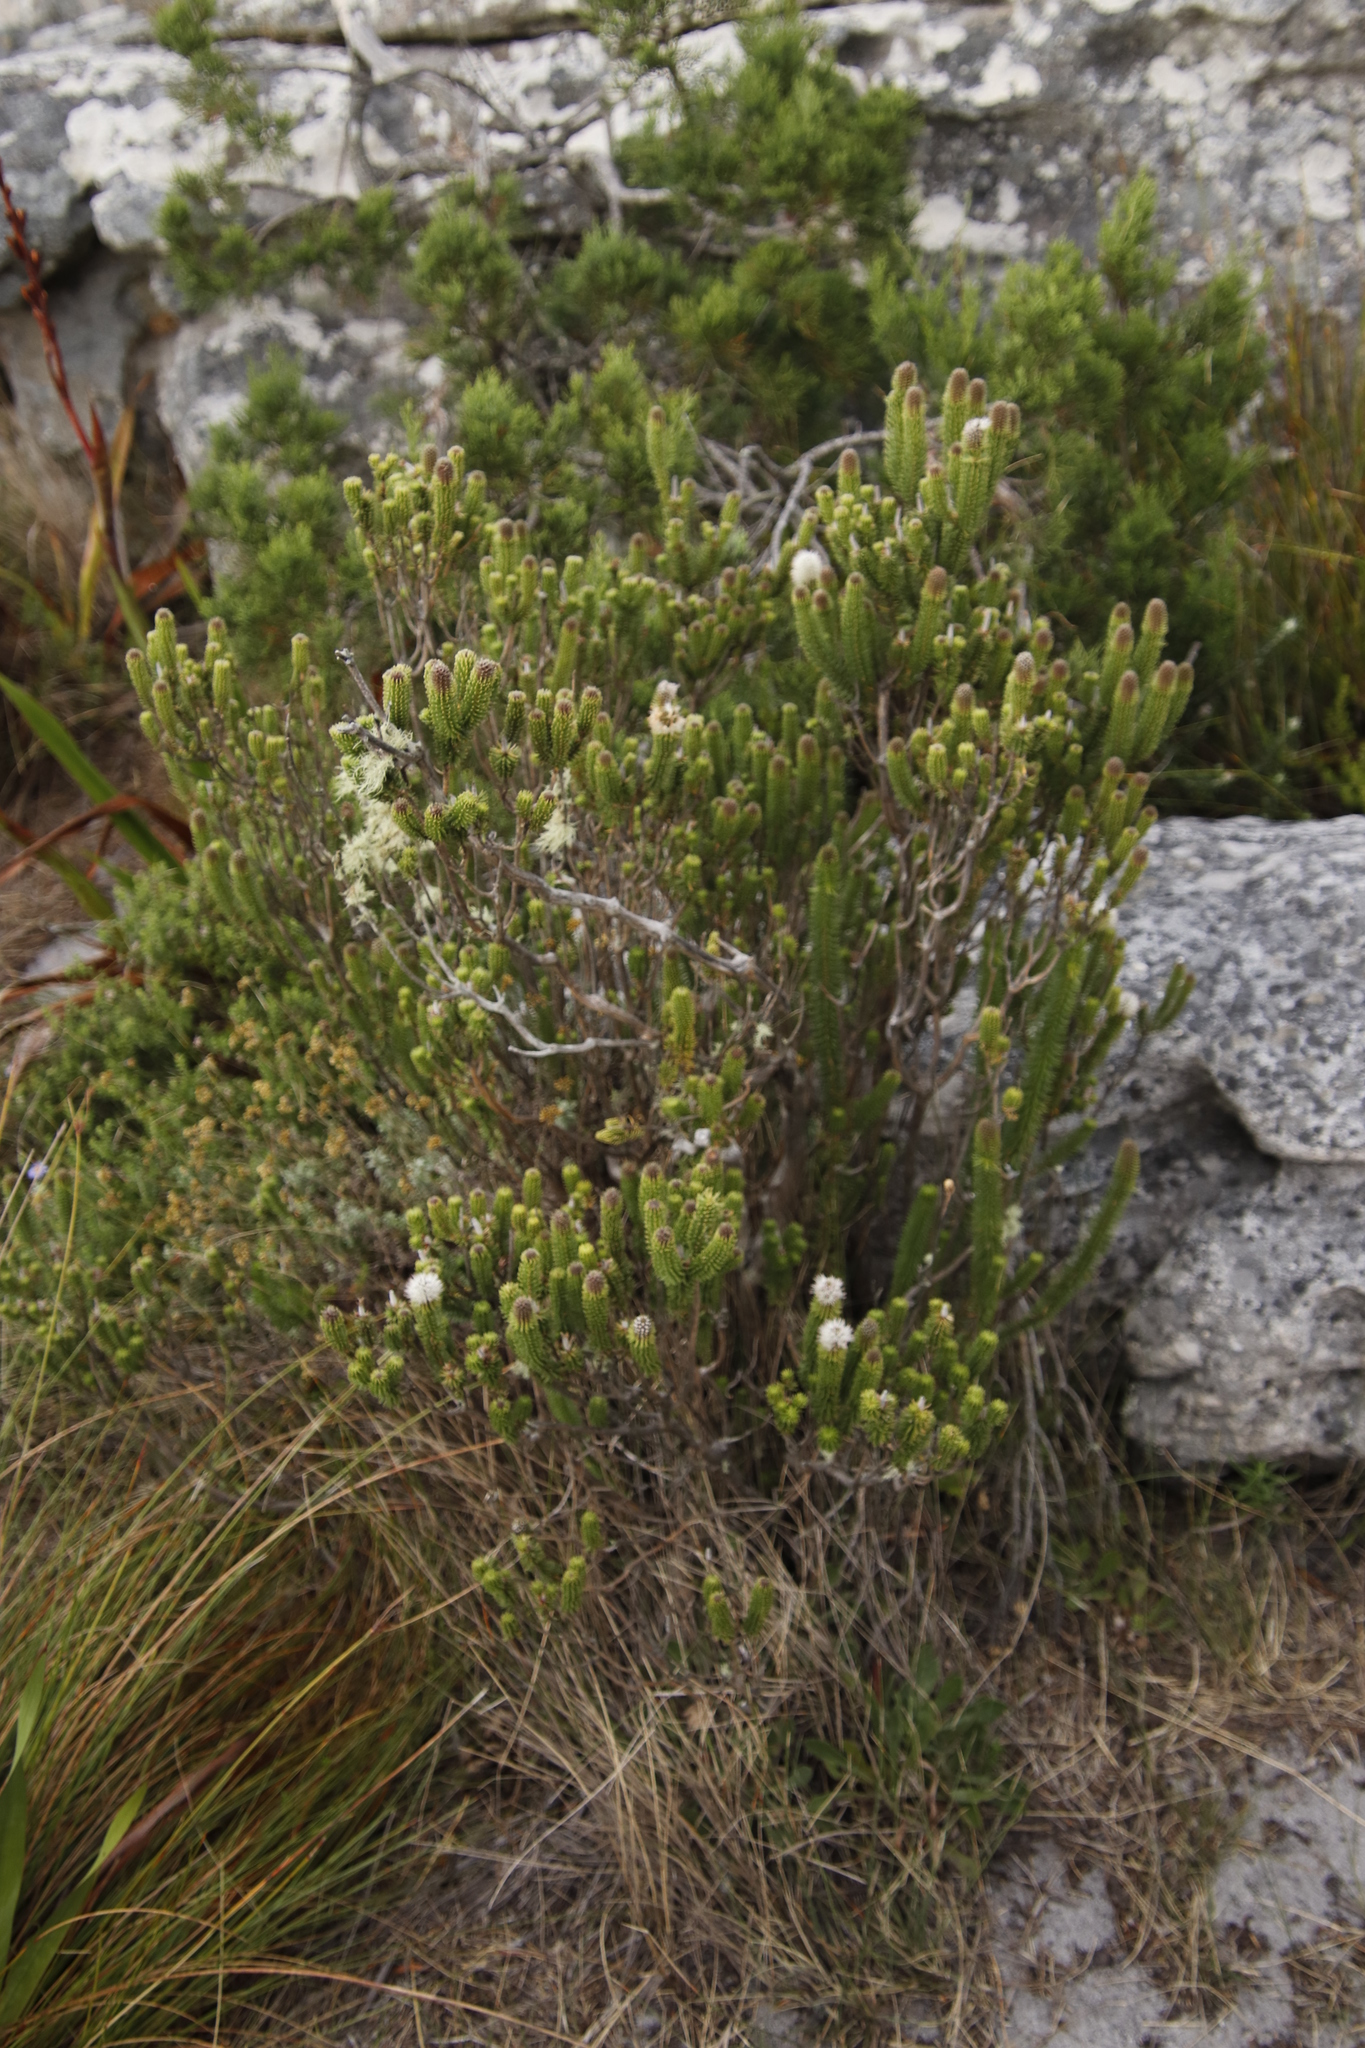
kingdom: Plantae
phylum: Tracheophyta
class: Magnoliopsida
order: Lamiales
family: Stilbaceae
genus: Stilbe
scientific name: Stilbe vestita
